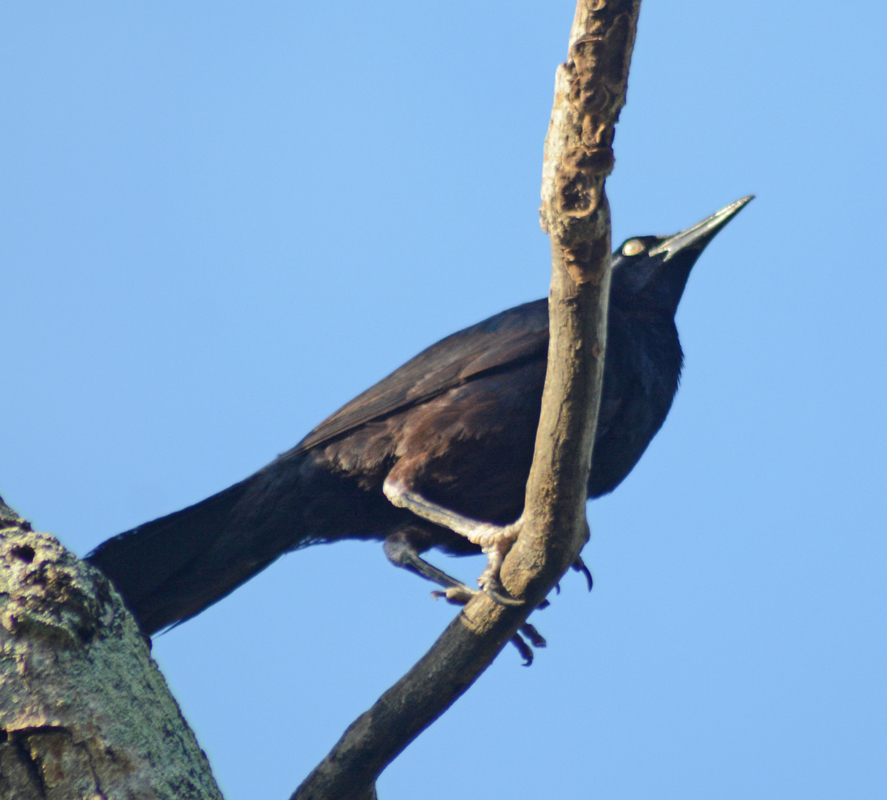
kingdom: Animalia
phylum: Chordata
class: Aves
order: Passeriformes
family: Icteridae
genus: Quiscalus
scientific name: Quiscalus mexicanus
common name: Great-tailed grackle
